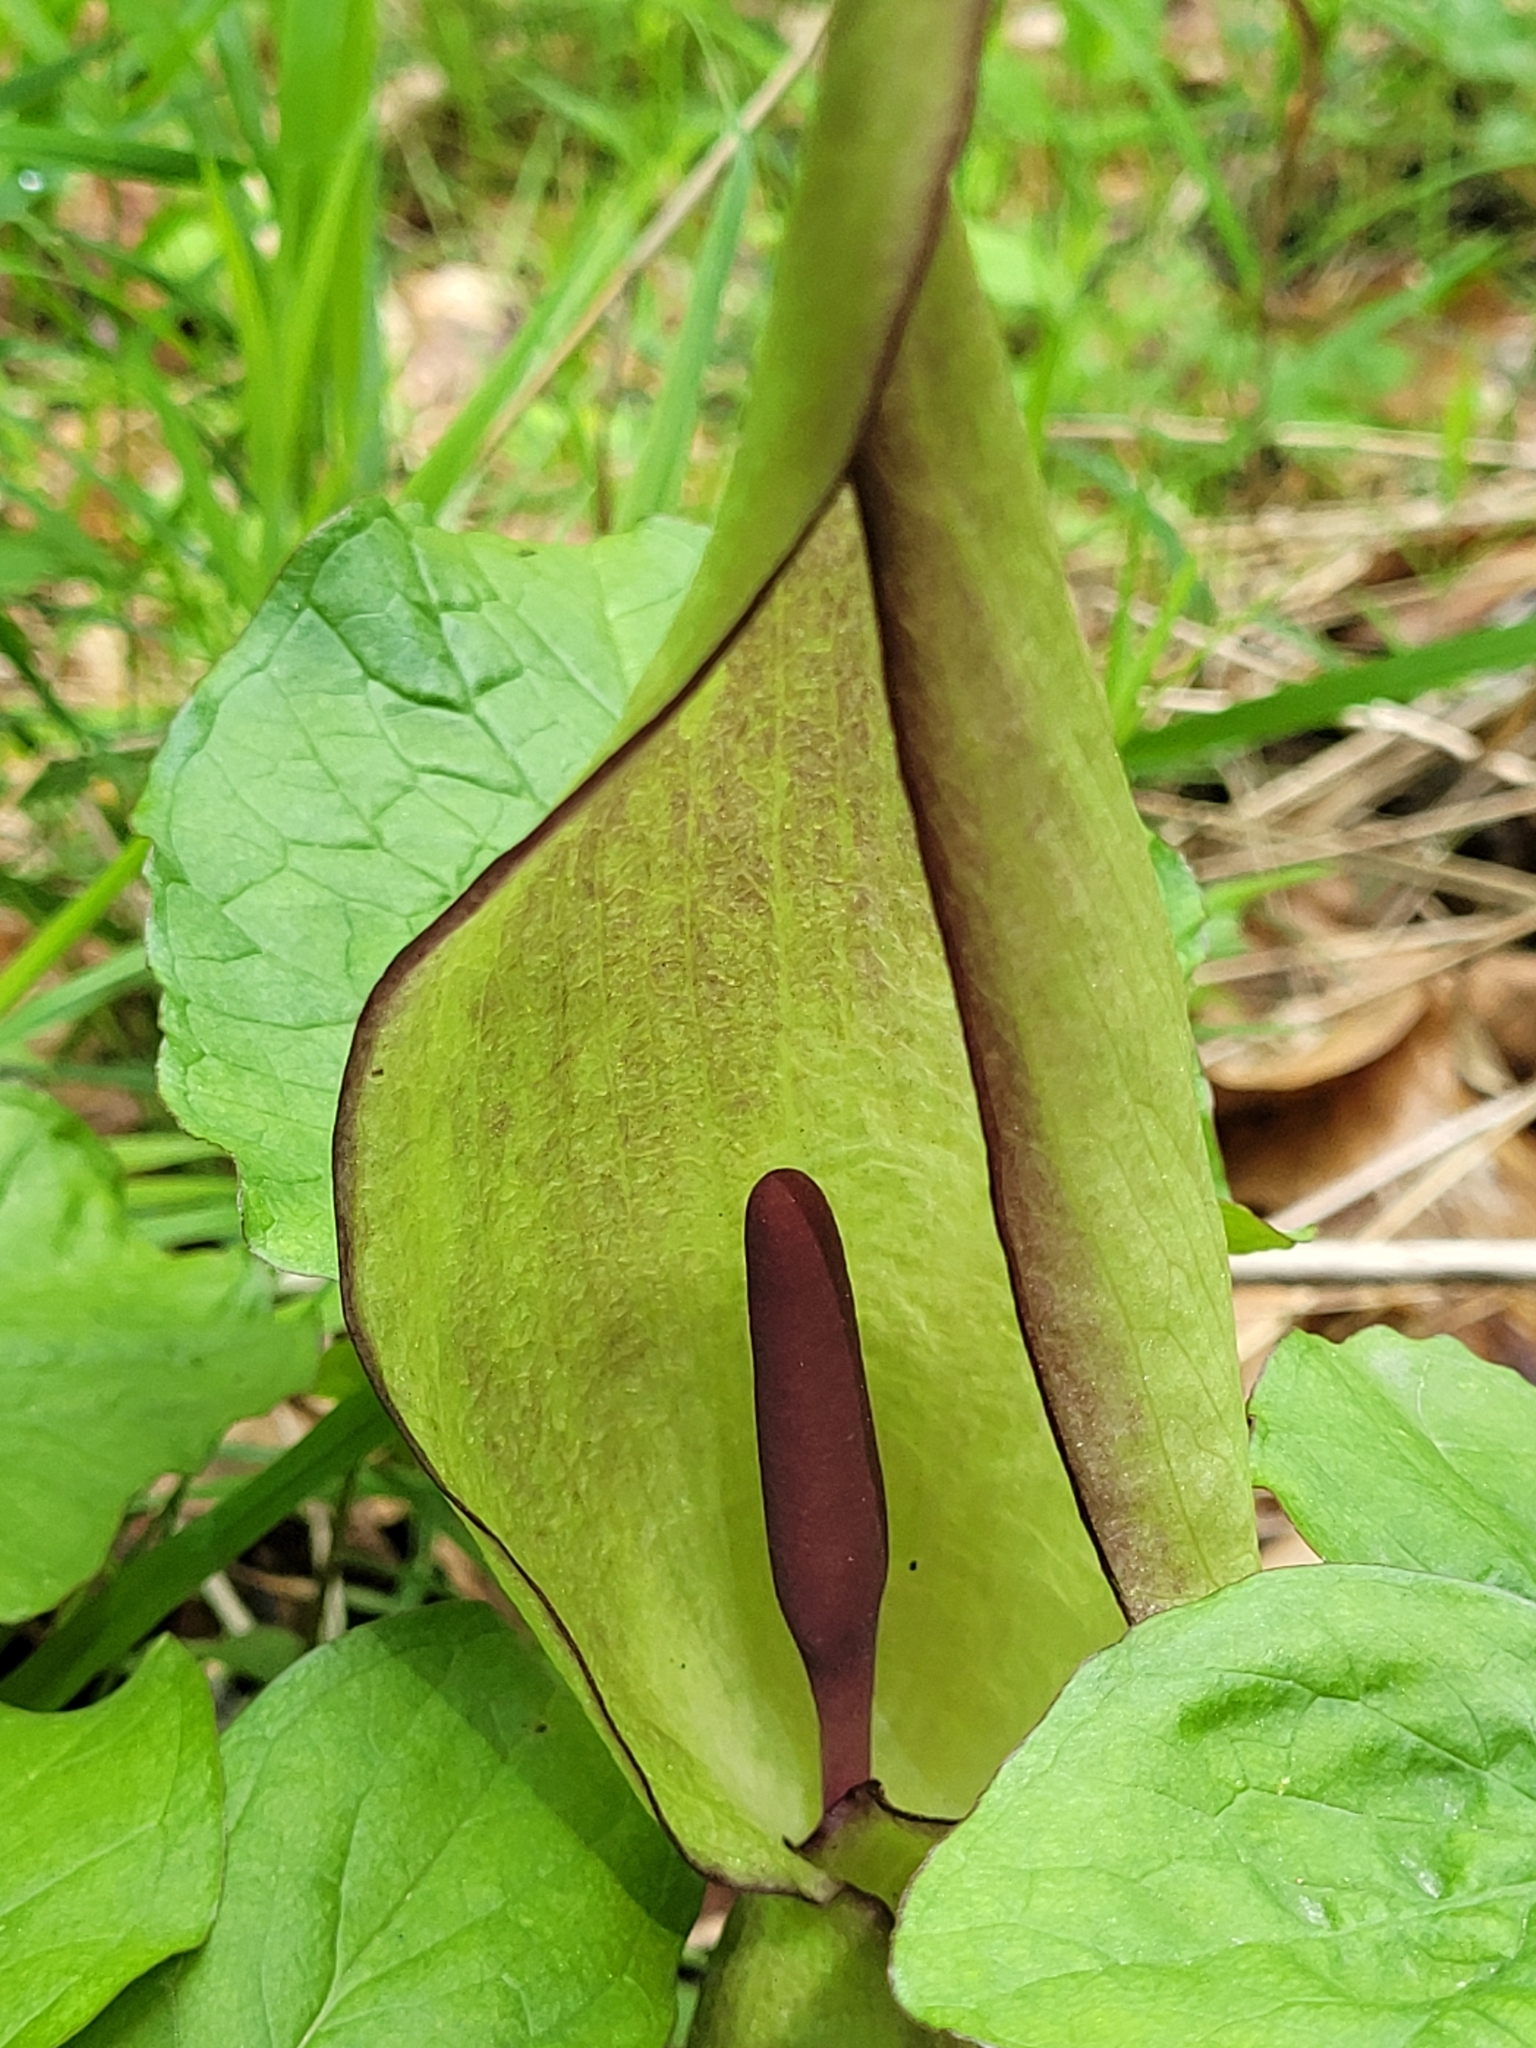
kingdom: Plantae
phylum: Tracheophyta
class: Liliopsida
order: Alismatales
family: Araceae
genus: Arum
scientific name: Arum maculatum
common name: Lords-and-ladies
